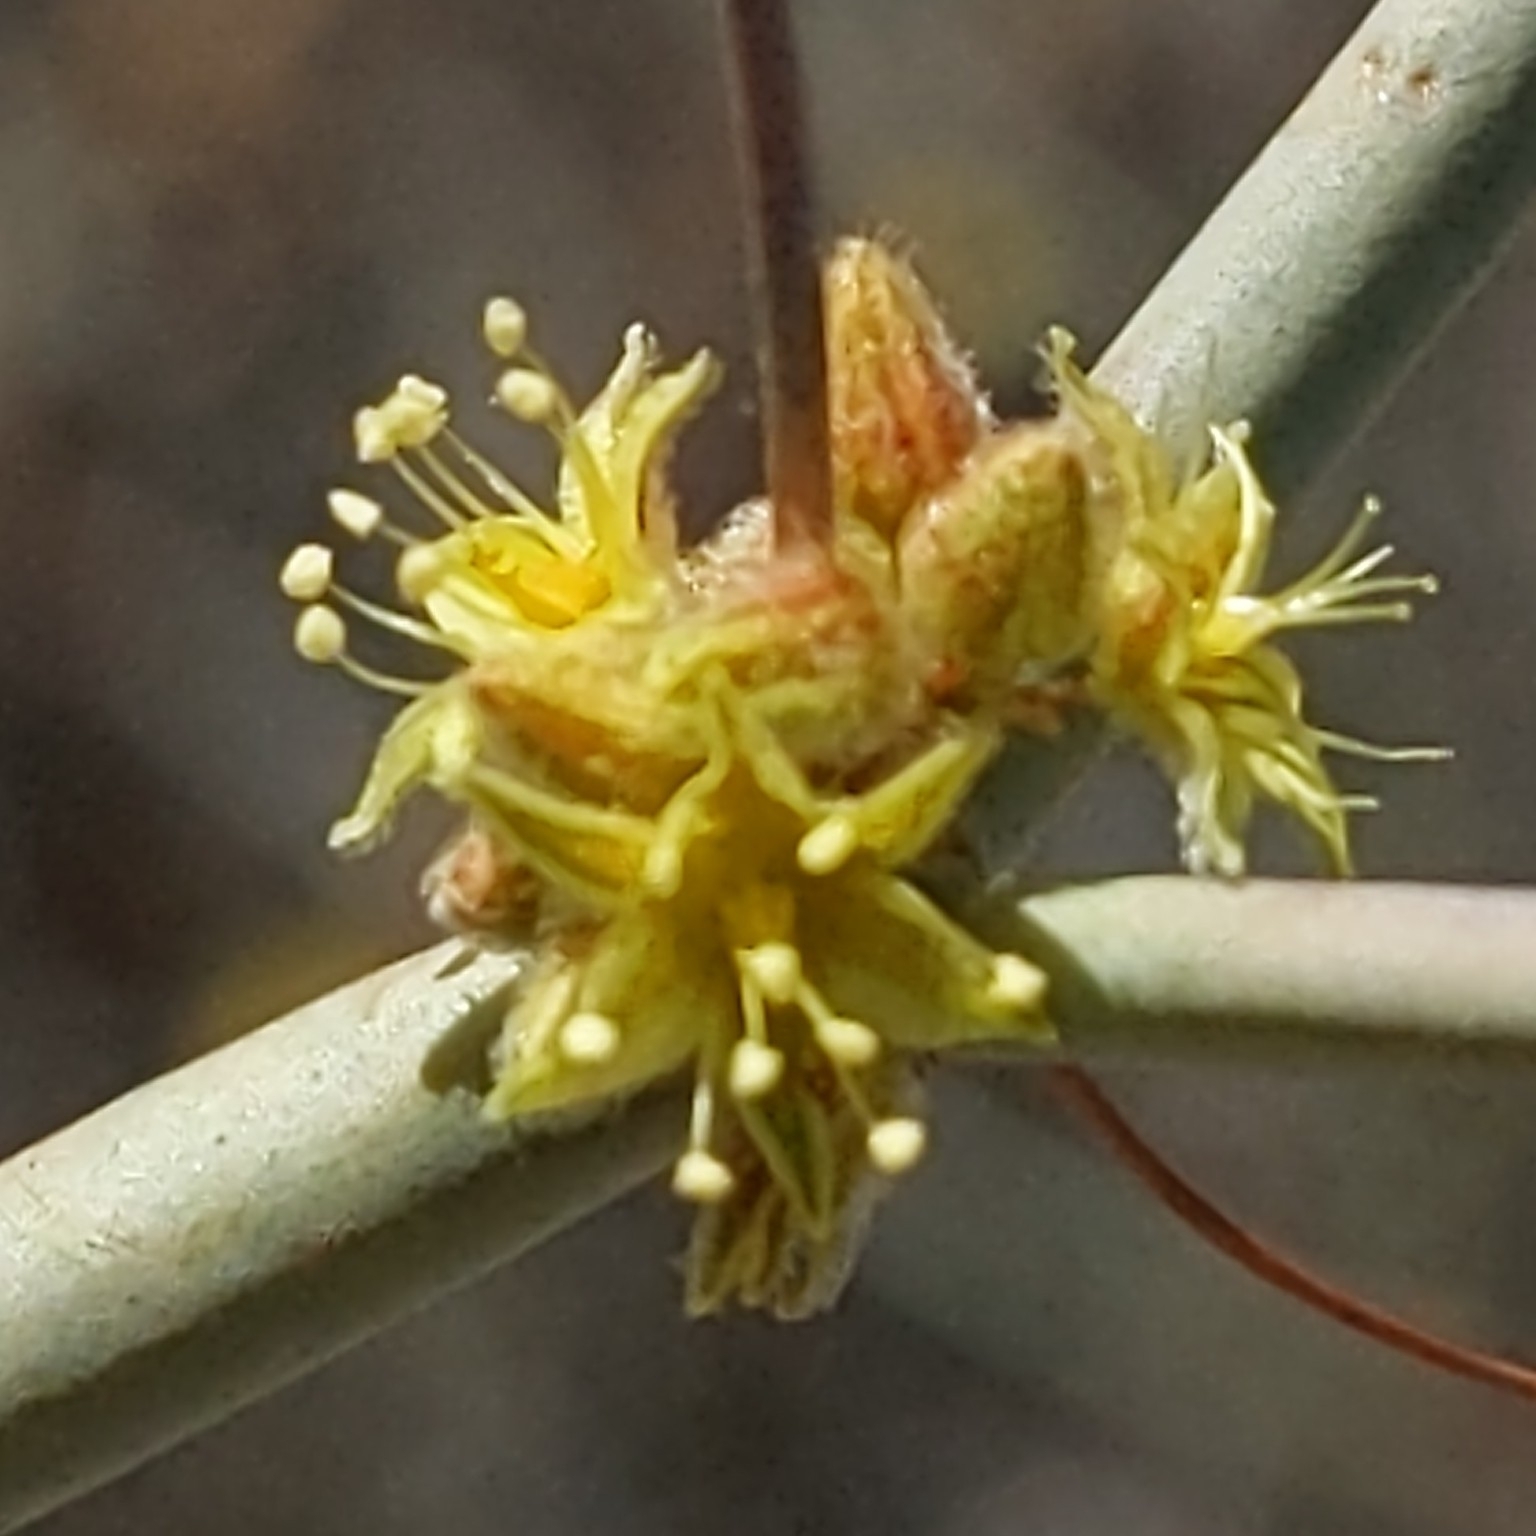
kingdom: Plantae
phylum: Tracheophyta
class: Magnoliopsida
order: Caryophyllales
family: Polygonaceae
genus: Eriogonum
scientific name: Eriogonum inflatum
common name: Desert trumpet
